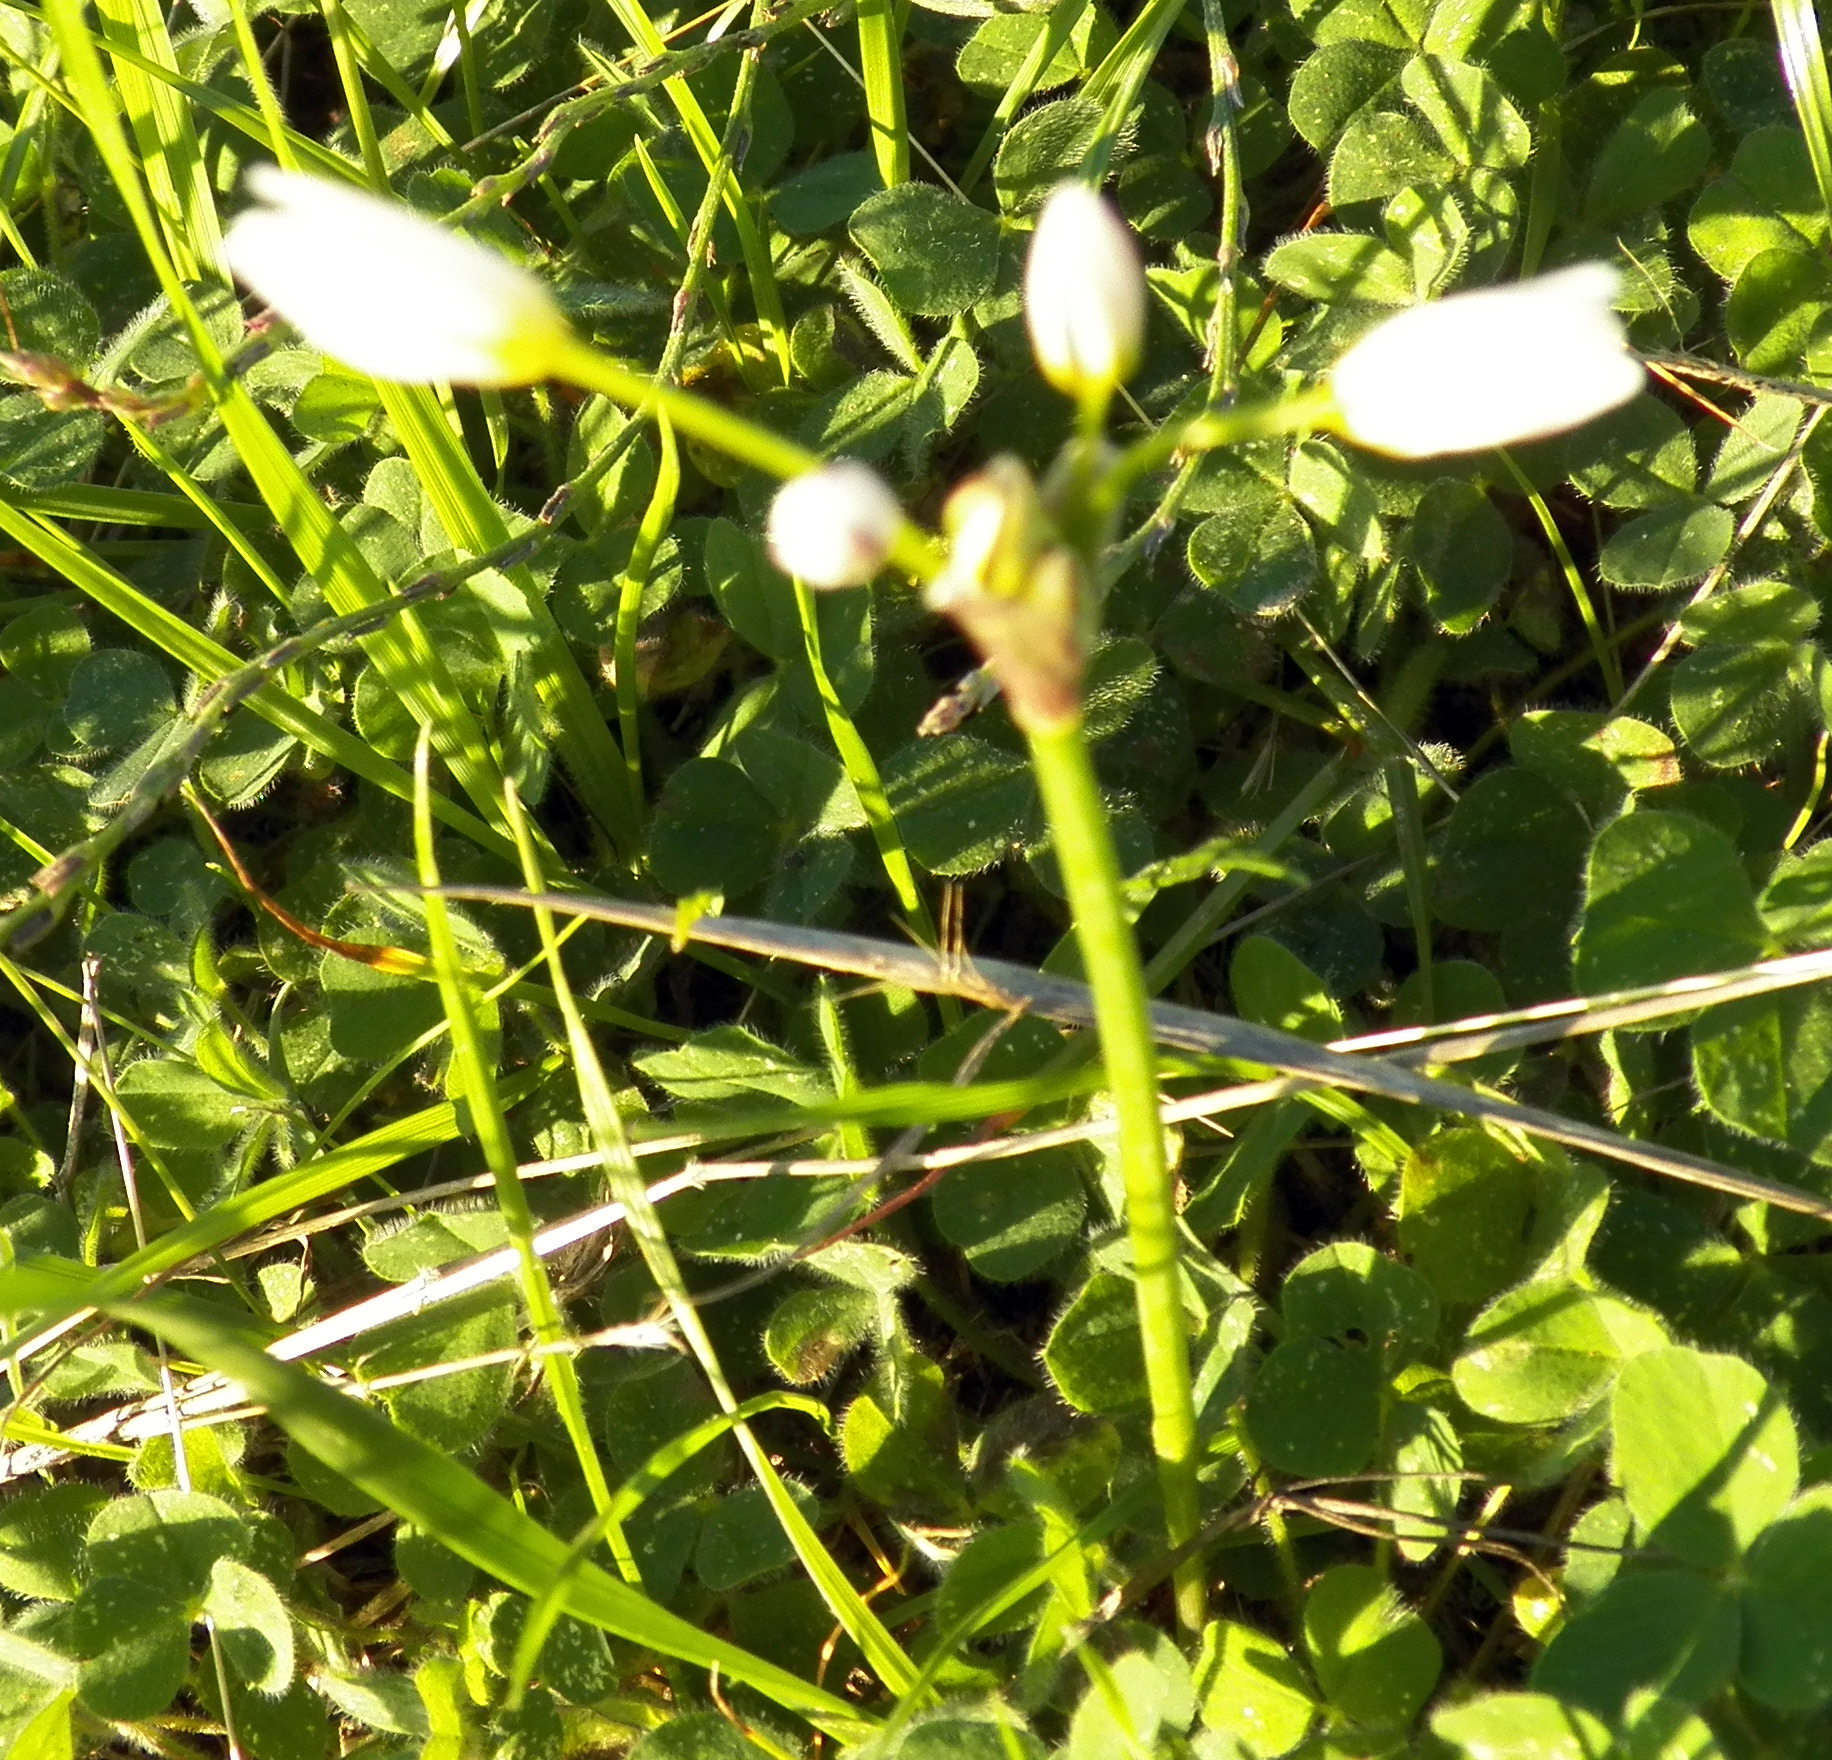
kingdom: Plantae
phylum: Tracheophyta
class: Liliopsida
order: Asparagales
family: Amaryllidaceae
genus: Nothoscordum
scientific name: Nothoscordum bivalve
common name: Crow-poison
